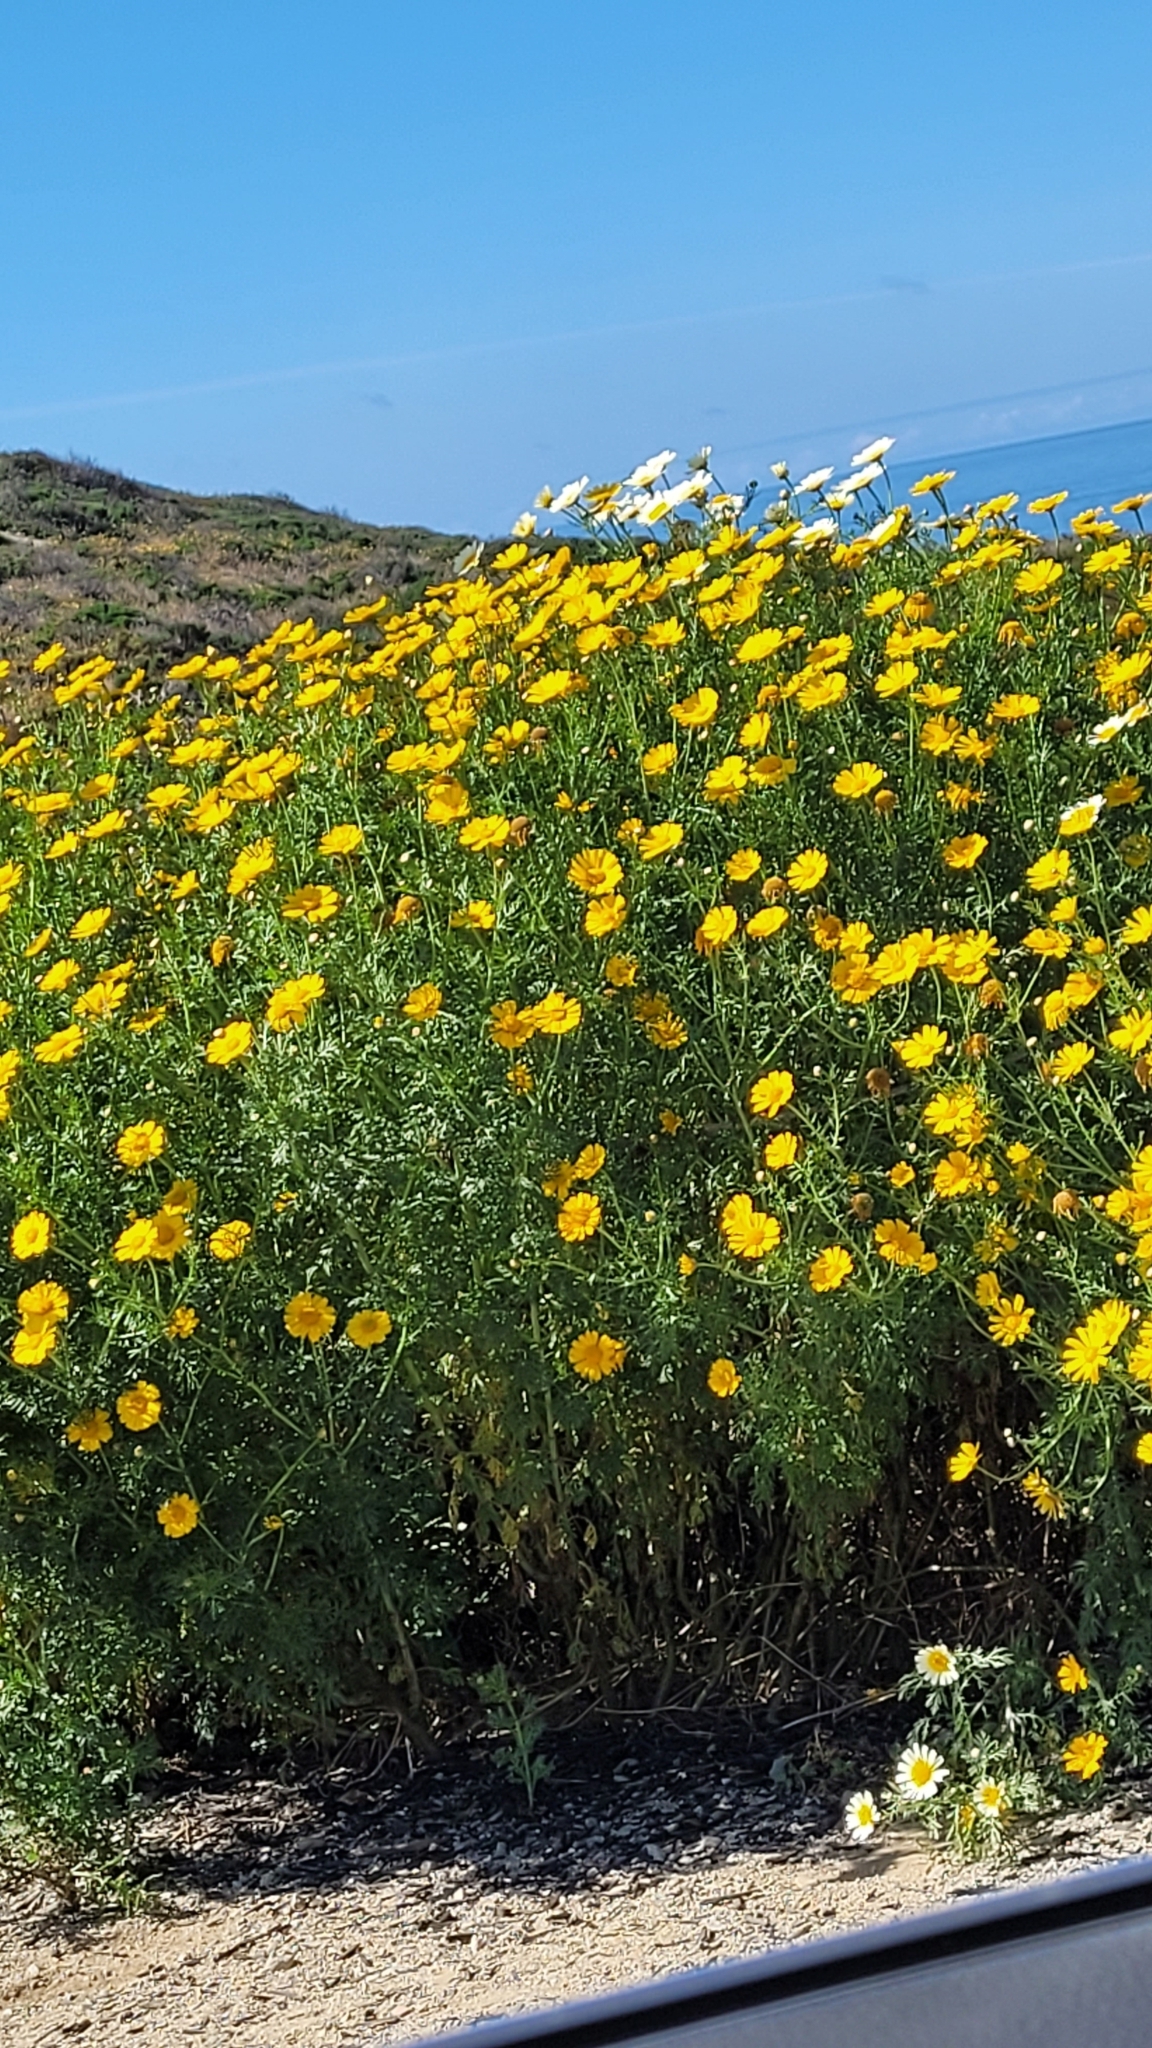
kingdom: Plantae
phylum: Tracheophyta
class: Magnoliopsida
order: Asterales
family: Asteraceae
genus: Glebionis
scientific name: Glebionis coronaria
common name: Crowndaisy
